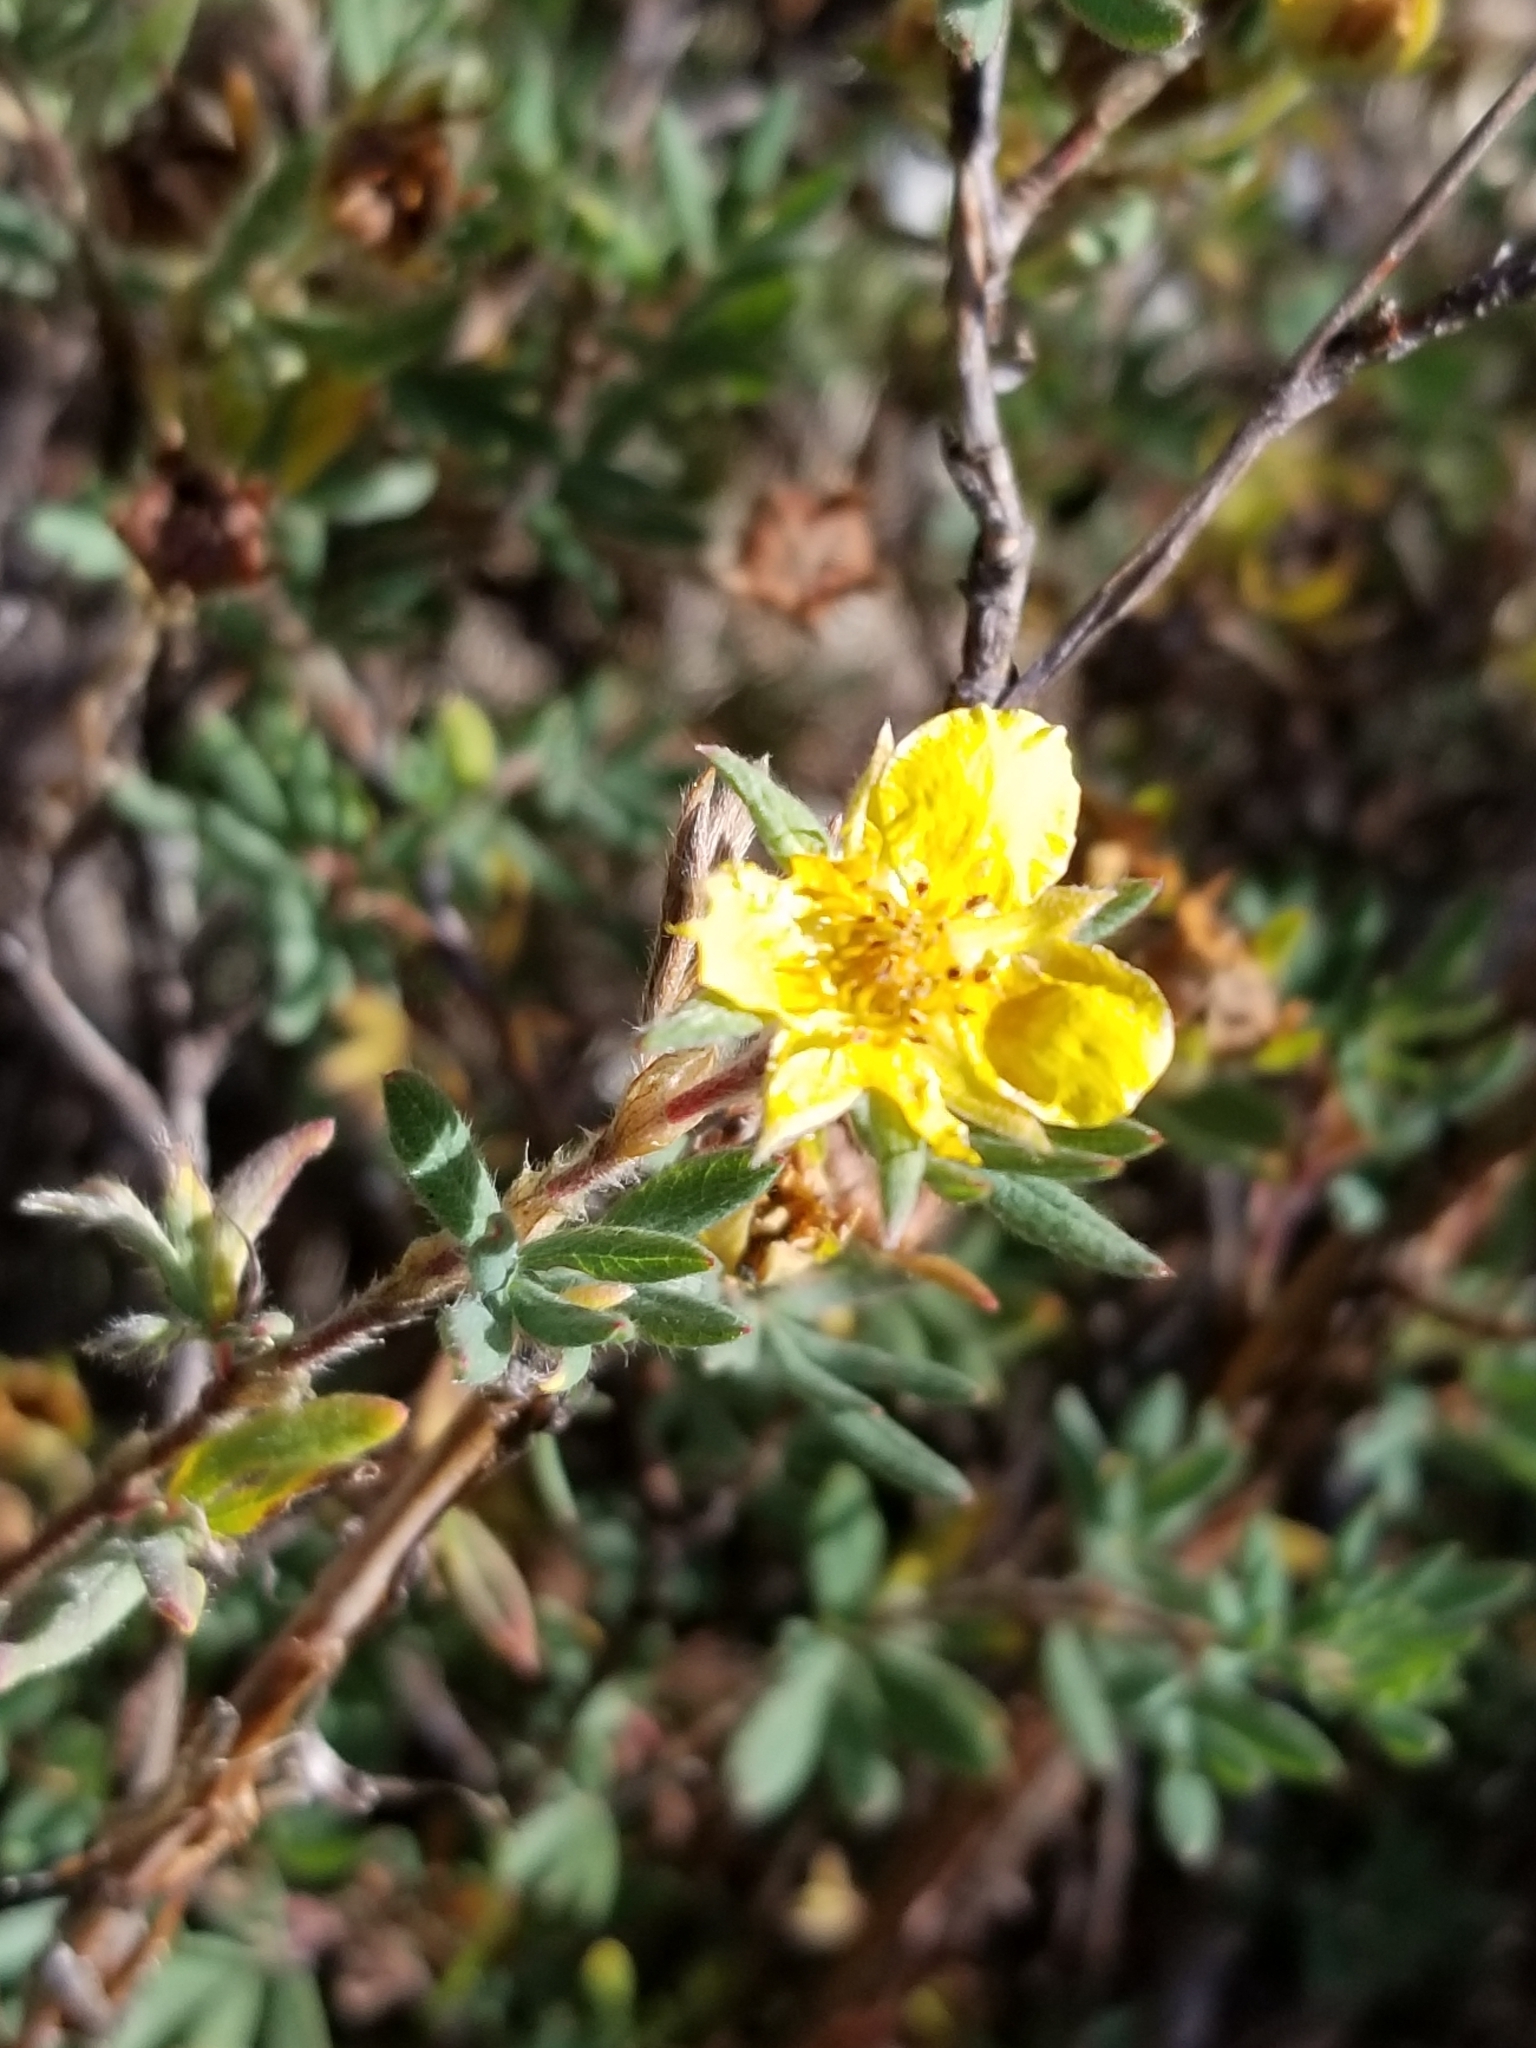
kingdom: Plantae
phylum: Tracheophyta
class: Magnoliopsida
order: Rosales
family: Rosaceae
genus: Dasiphora
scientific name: Dasiphora fruticosa
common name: Shrubby cinquefoil
